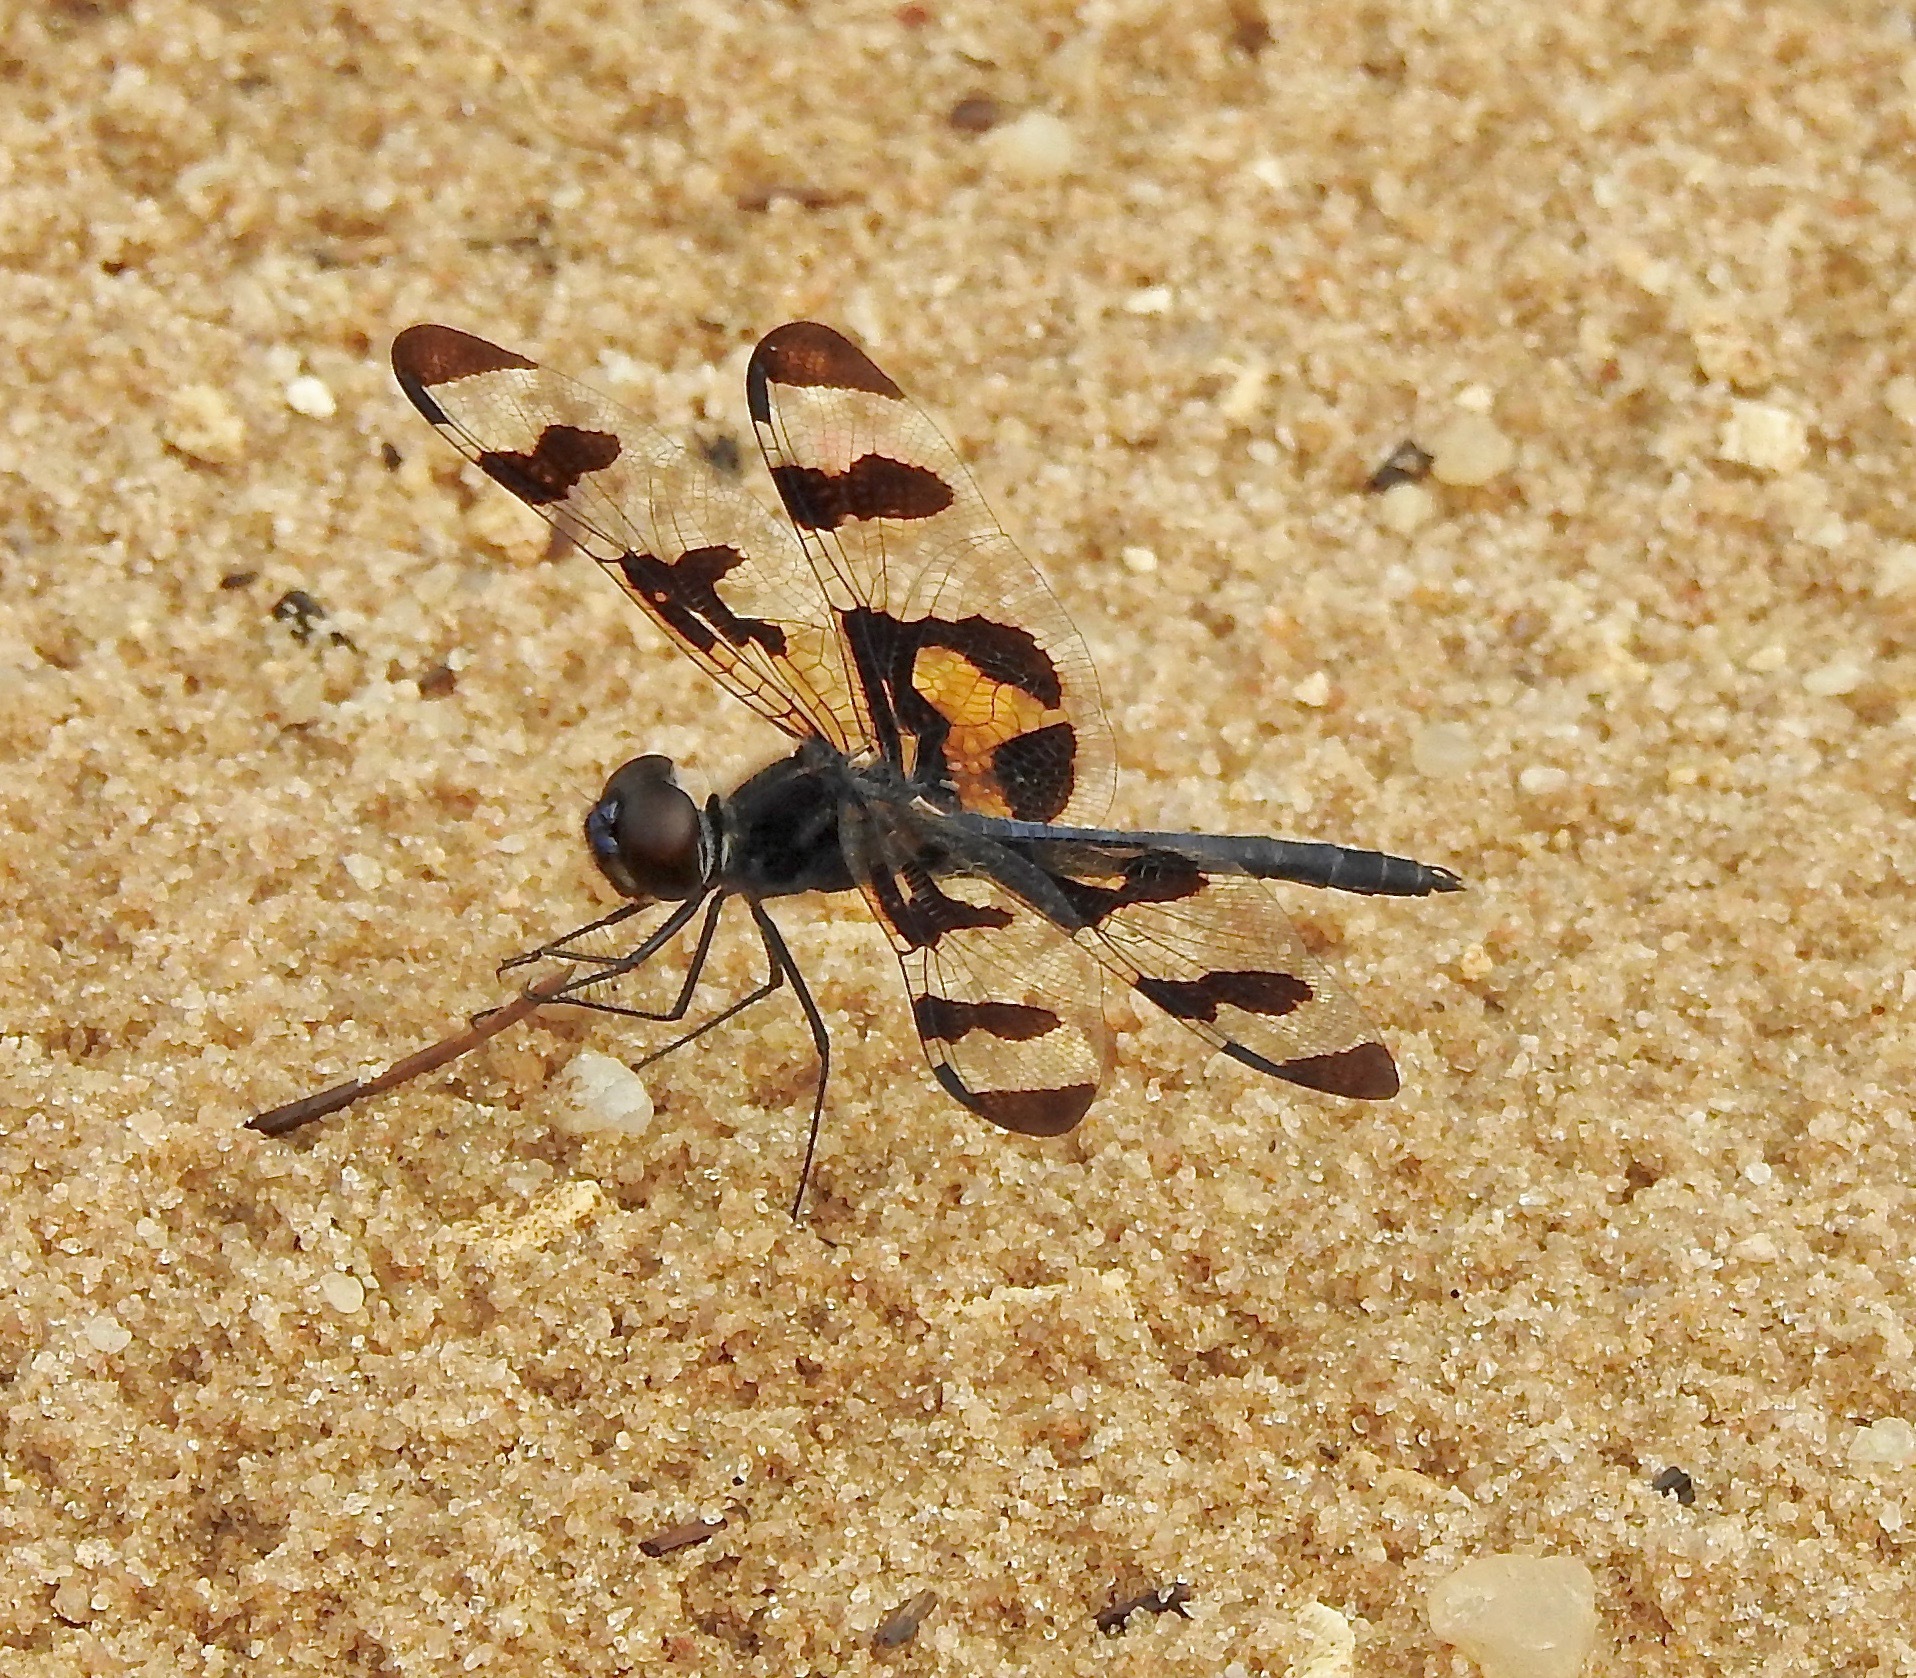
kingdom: Animalia
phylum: Arthropoda
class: Insecta
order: Odonata
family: Libellulidae
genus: Celithemis
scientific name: Celithemis fasciata
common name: Banded pennant
